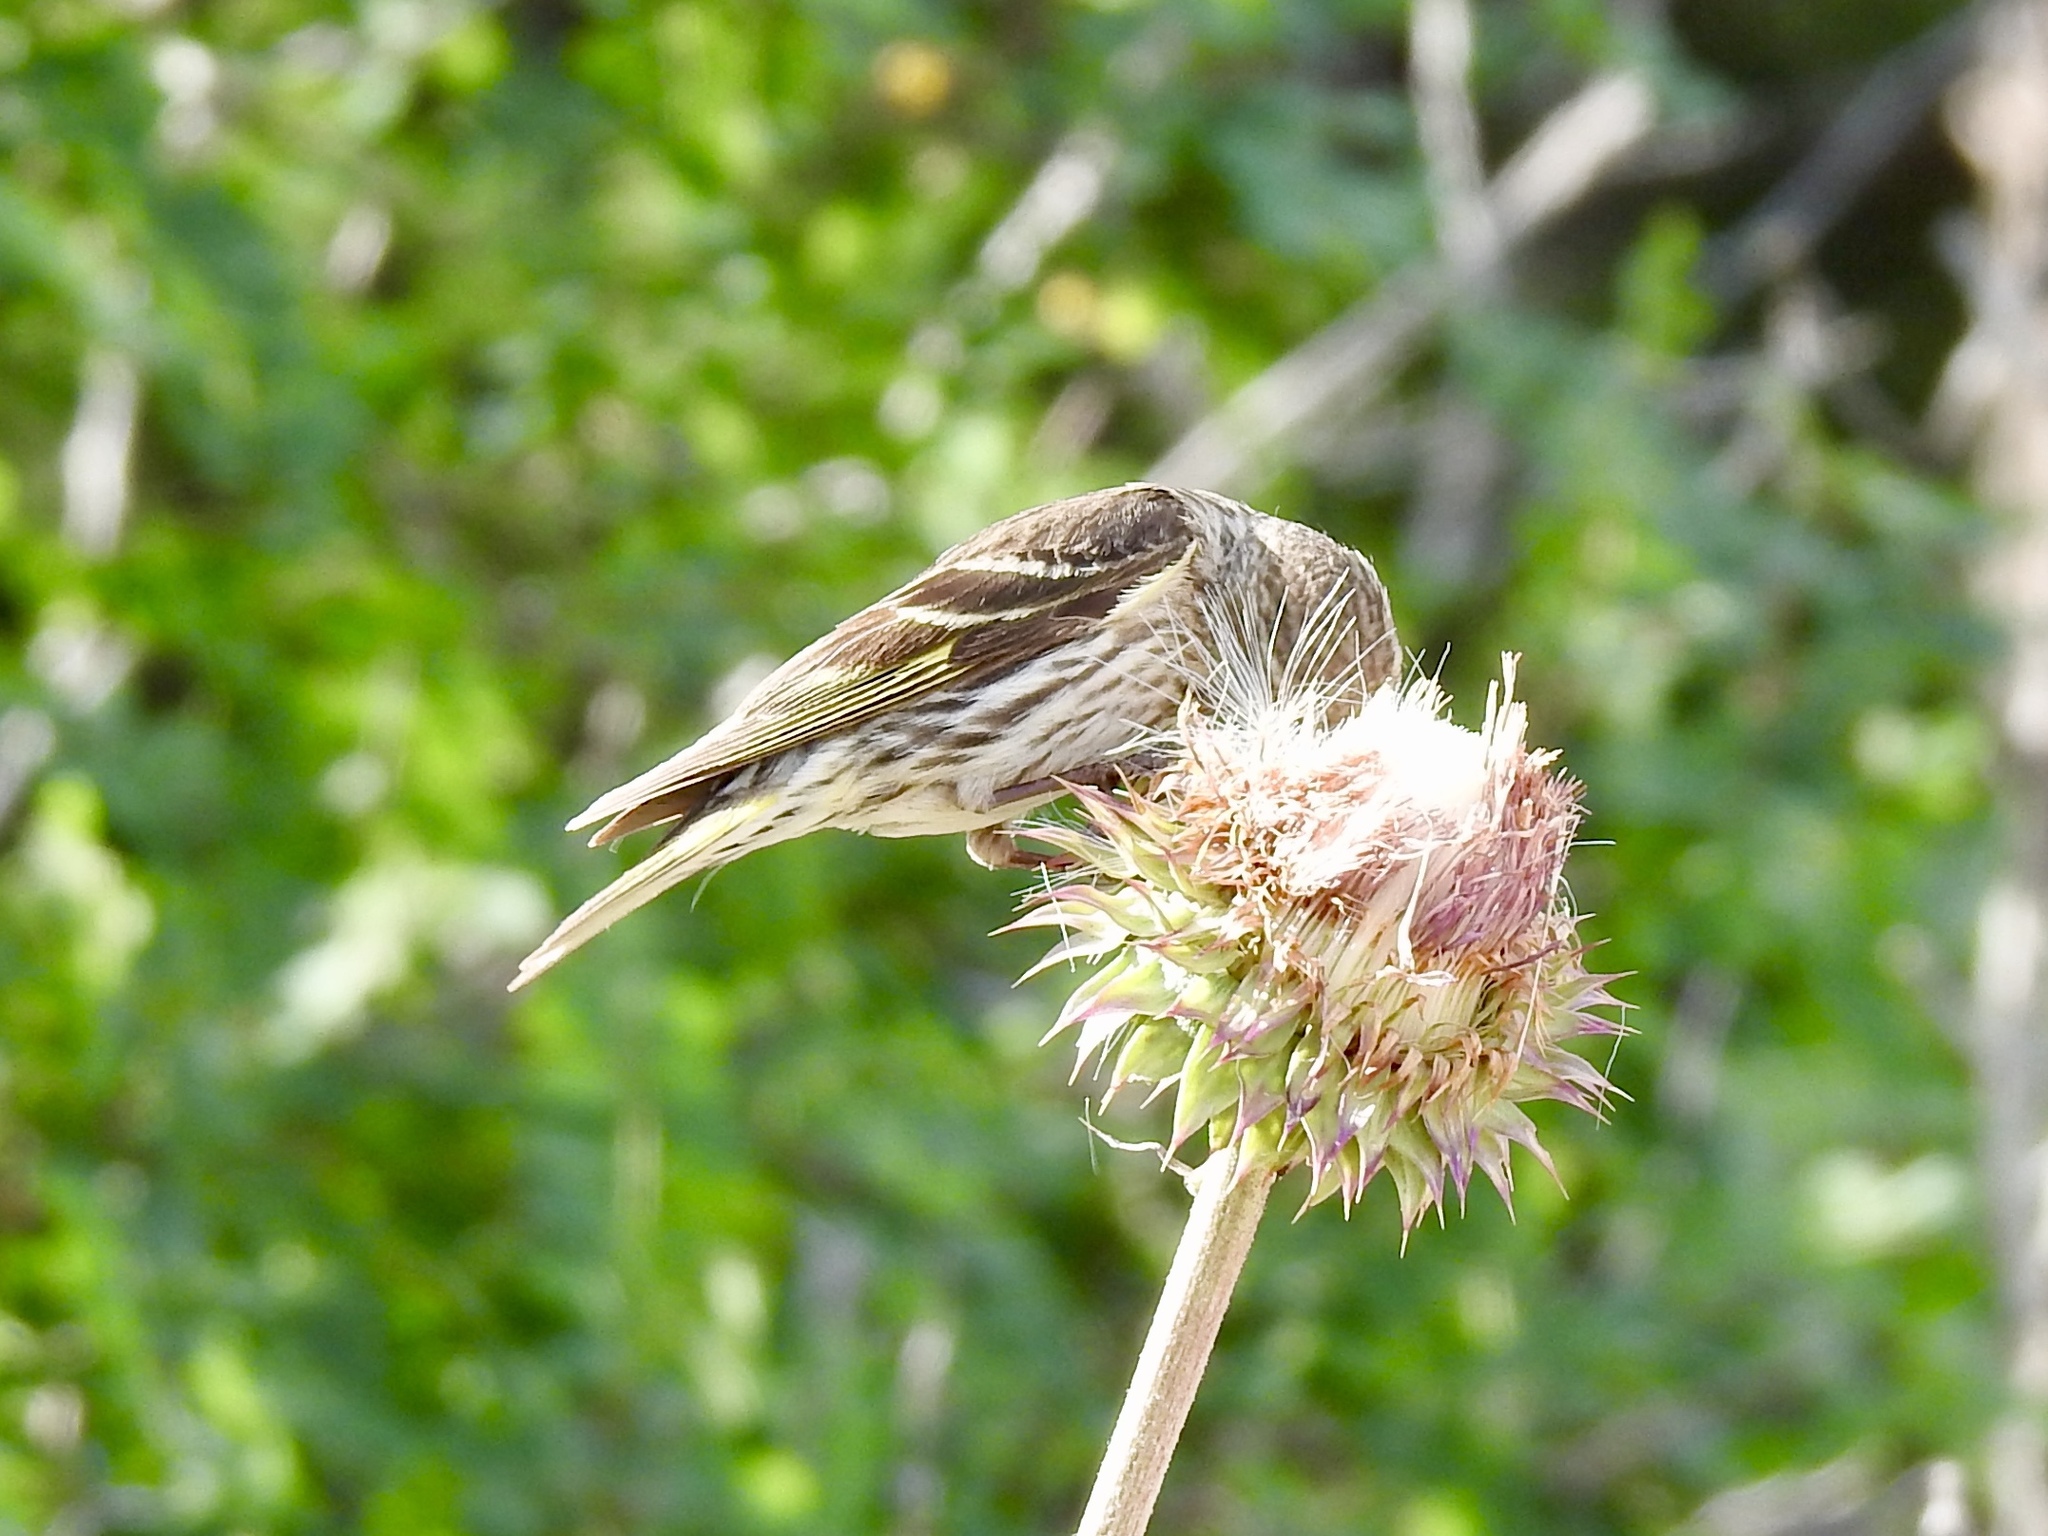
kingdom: Animalia
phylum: Chordata
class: Aves
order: Passeriformes
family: Fringillidae
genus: Spinus
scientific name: Spinus pinus
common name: Pine siskin
